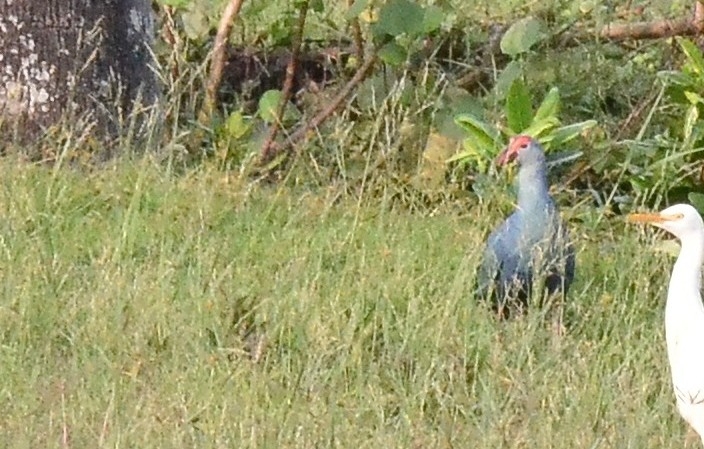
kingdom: Animalia
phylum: Chordata
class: Aves
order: Gruiformes
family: Rallidae
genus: Porphyrio
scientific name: Porphyrio porphyrio
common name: Purple swamphen
